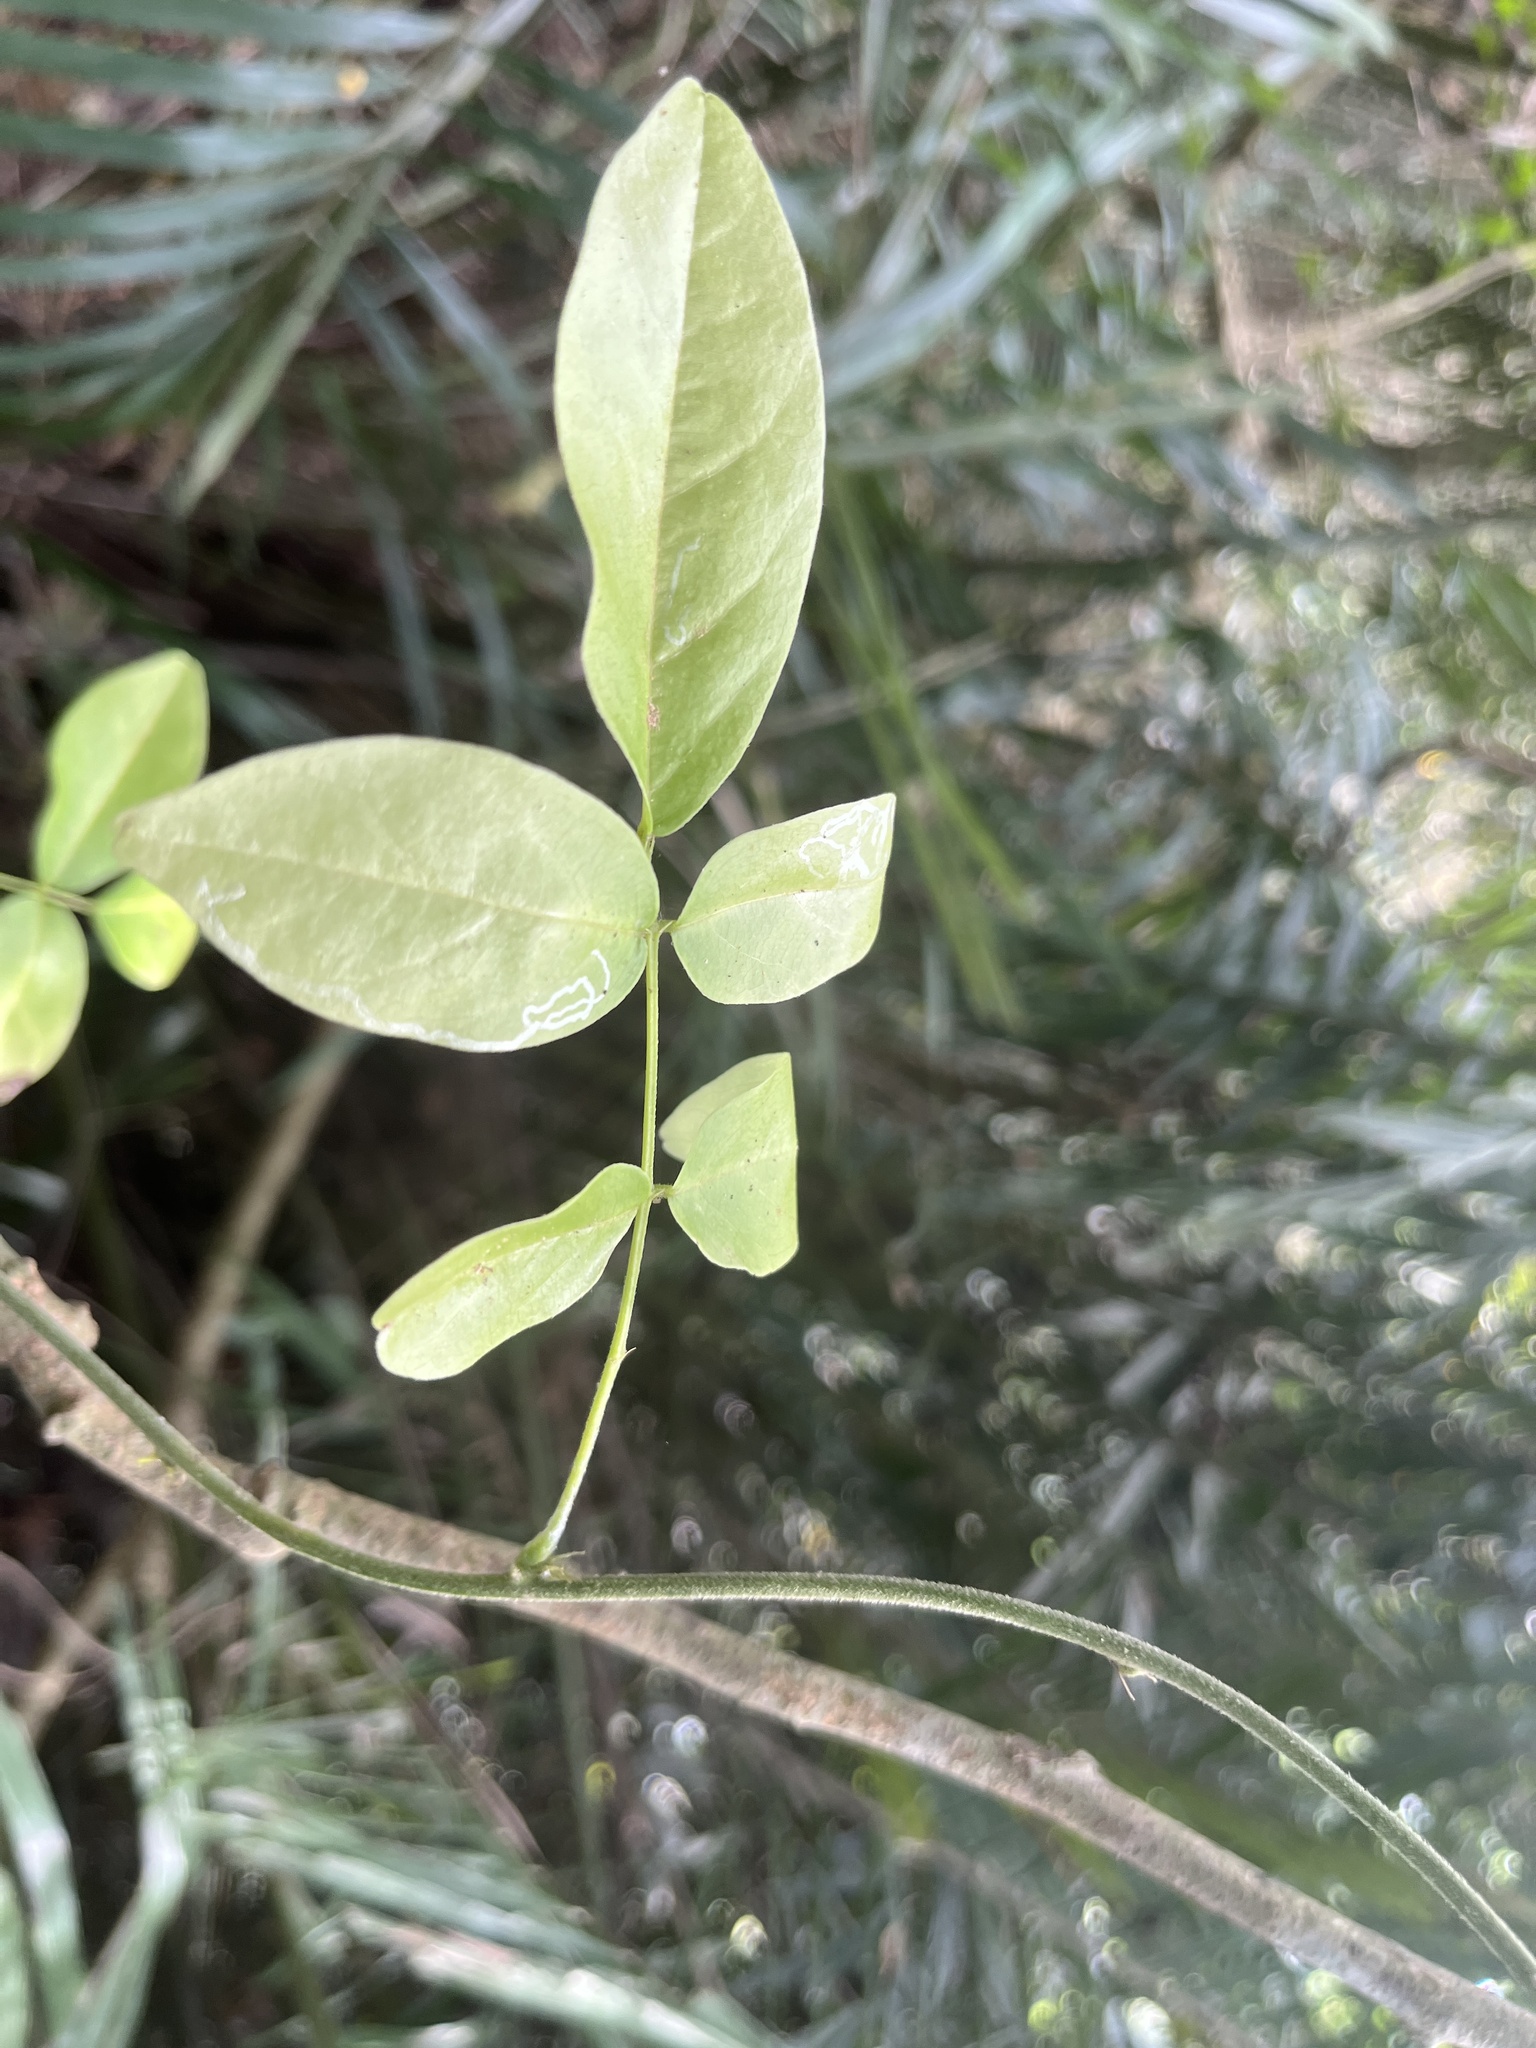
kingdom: Plantae
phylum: Tracheophyta
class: Magnoliopsida
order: Fabales
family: Fabaceae
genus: Wisteriopsis
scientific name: Wisteriopsis reticulata
